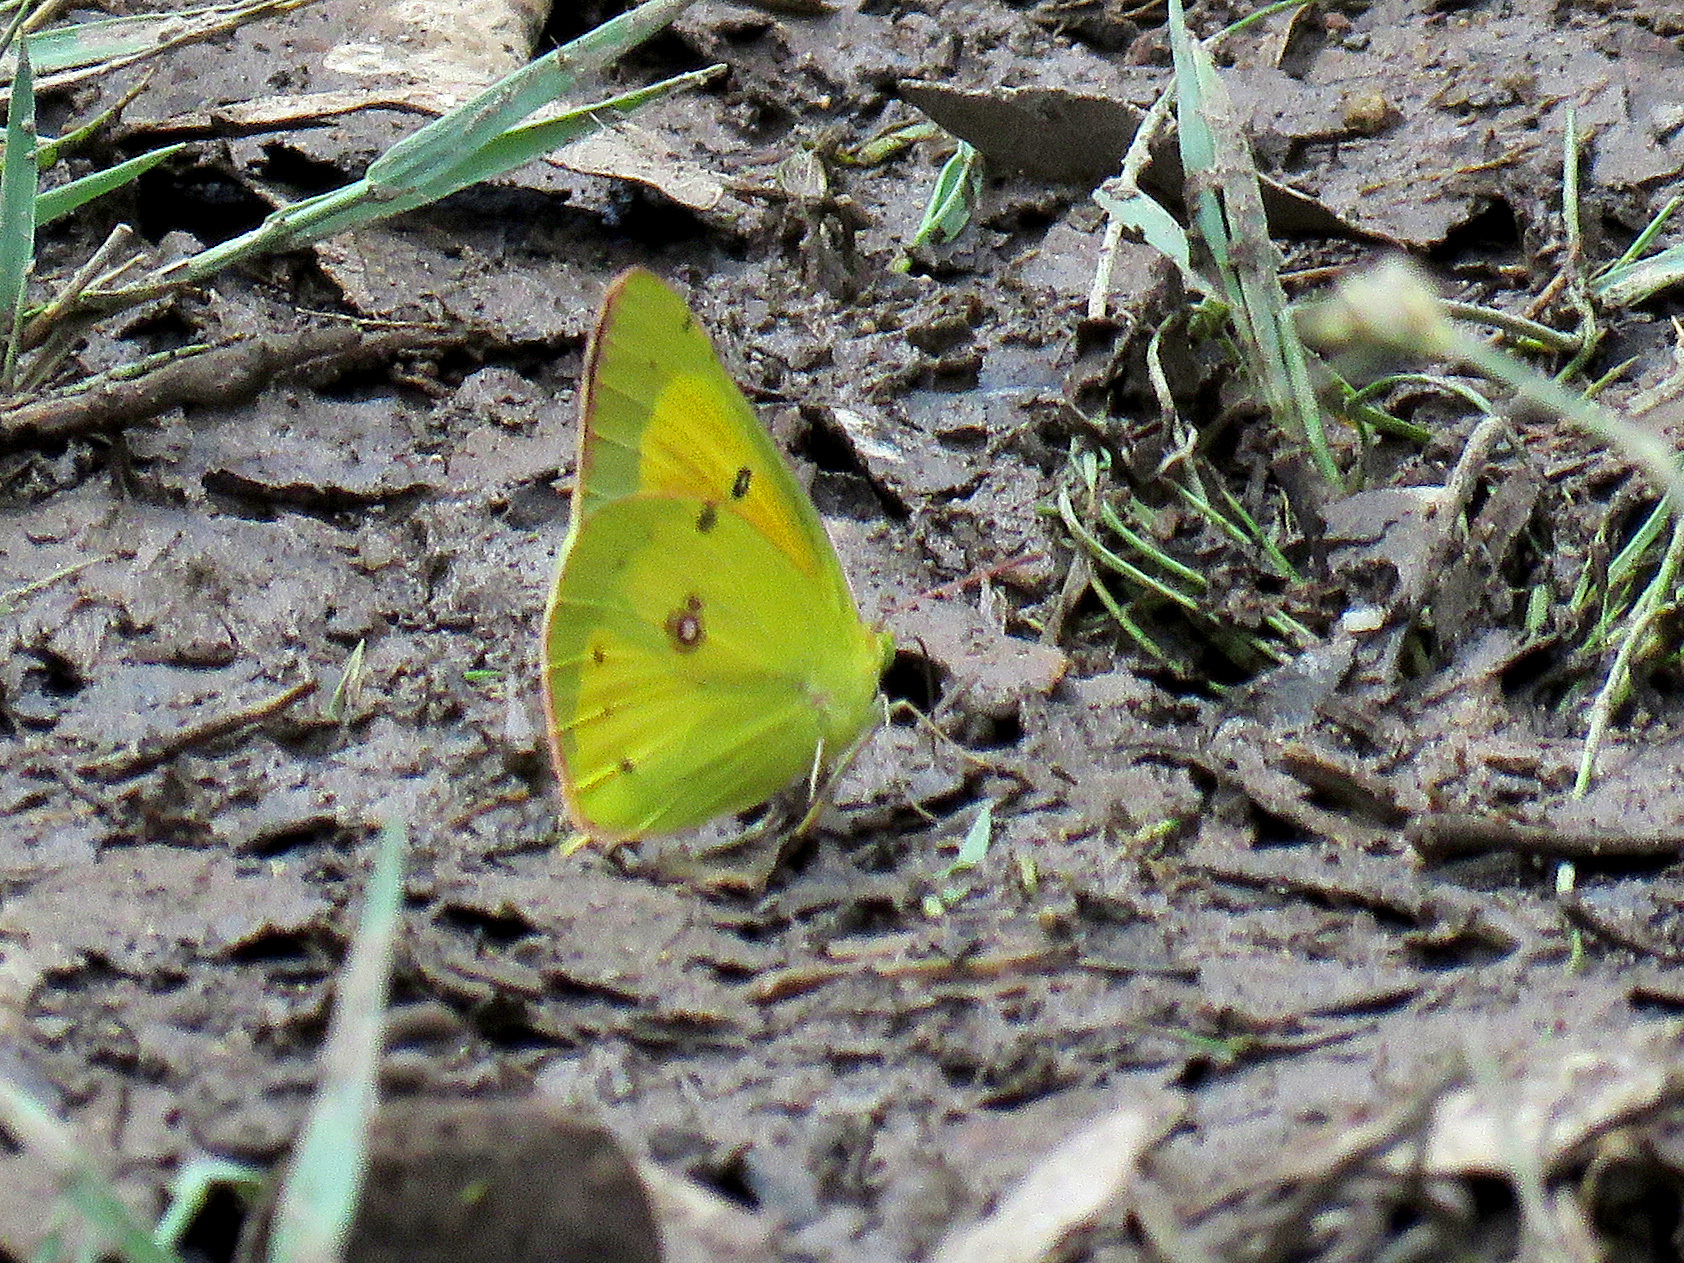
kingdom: Animalia
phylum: Arthropoda
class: Insecta
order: Lepidoptera
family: Pieridae
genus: Colias
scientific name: Colias eurytheme
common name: Alfalfa butterfly
